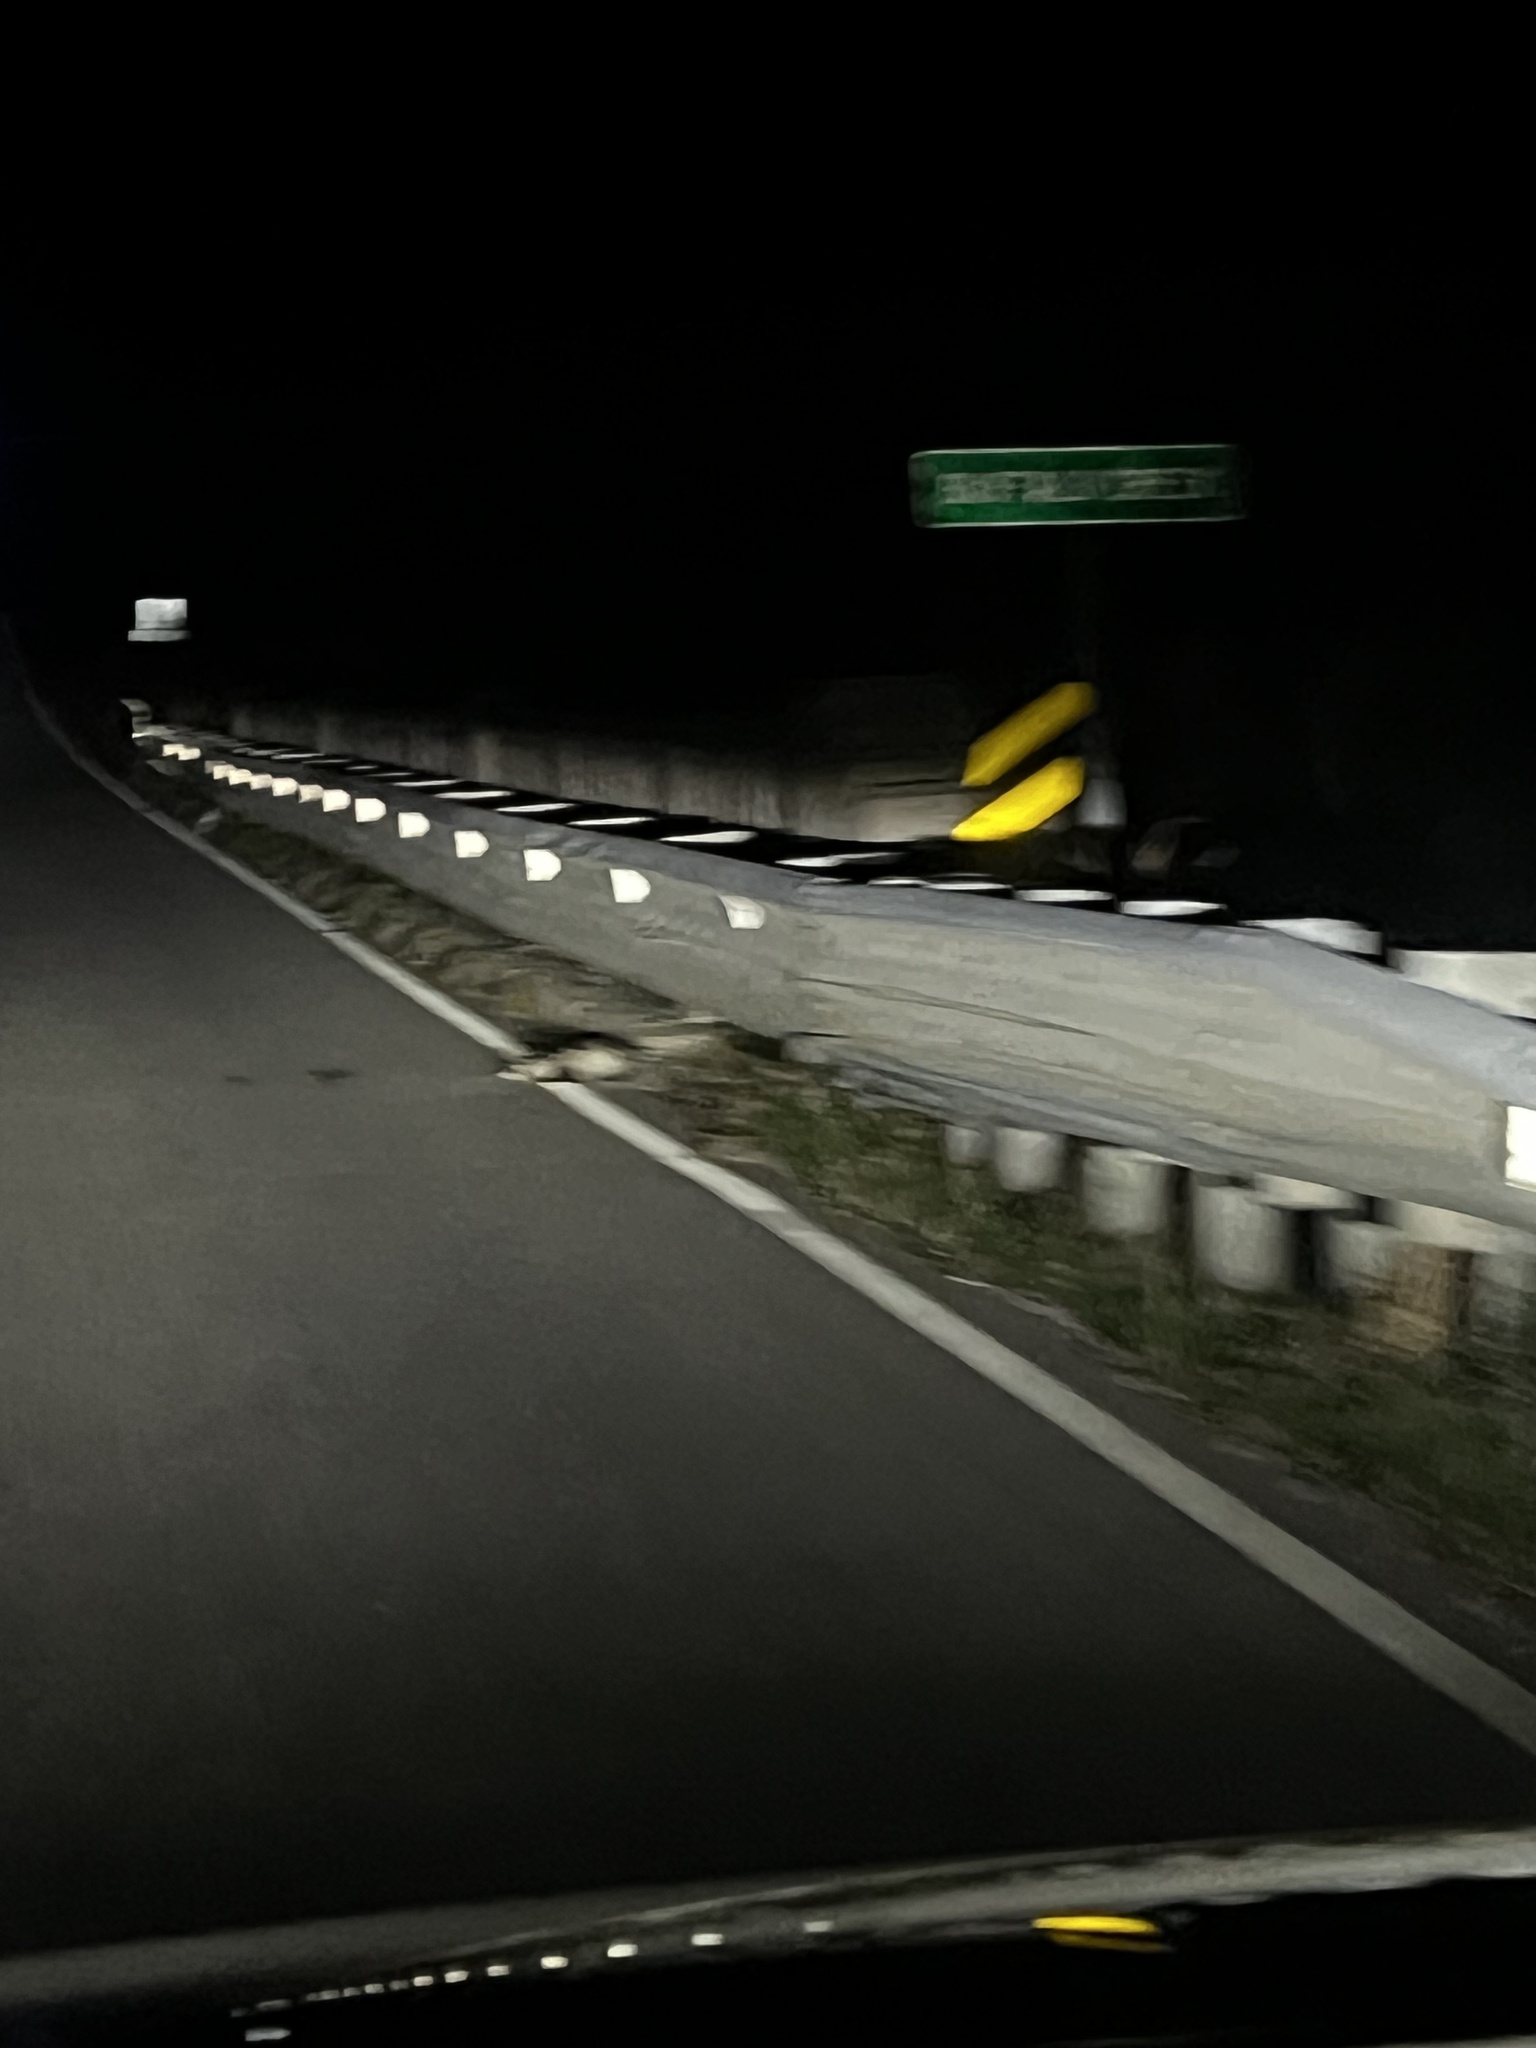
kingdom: Animalia
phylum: Chordata
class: Mammalia
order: Didelphimorphia
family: Didelphidae
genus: Didelphis
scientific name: Didelphis virginiana
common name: Virginia opossum
